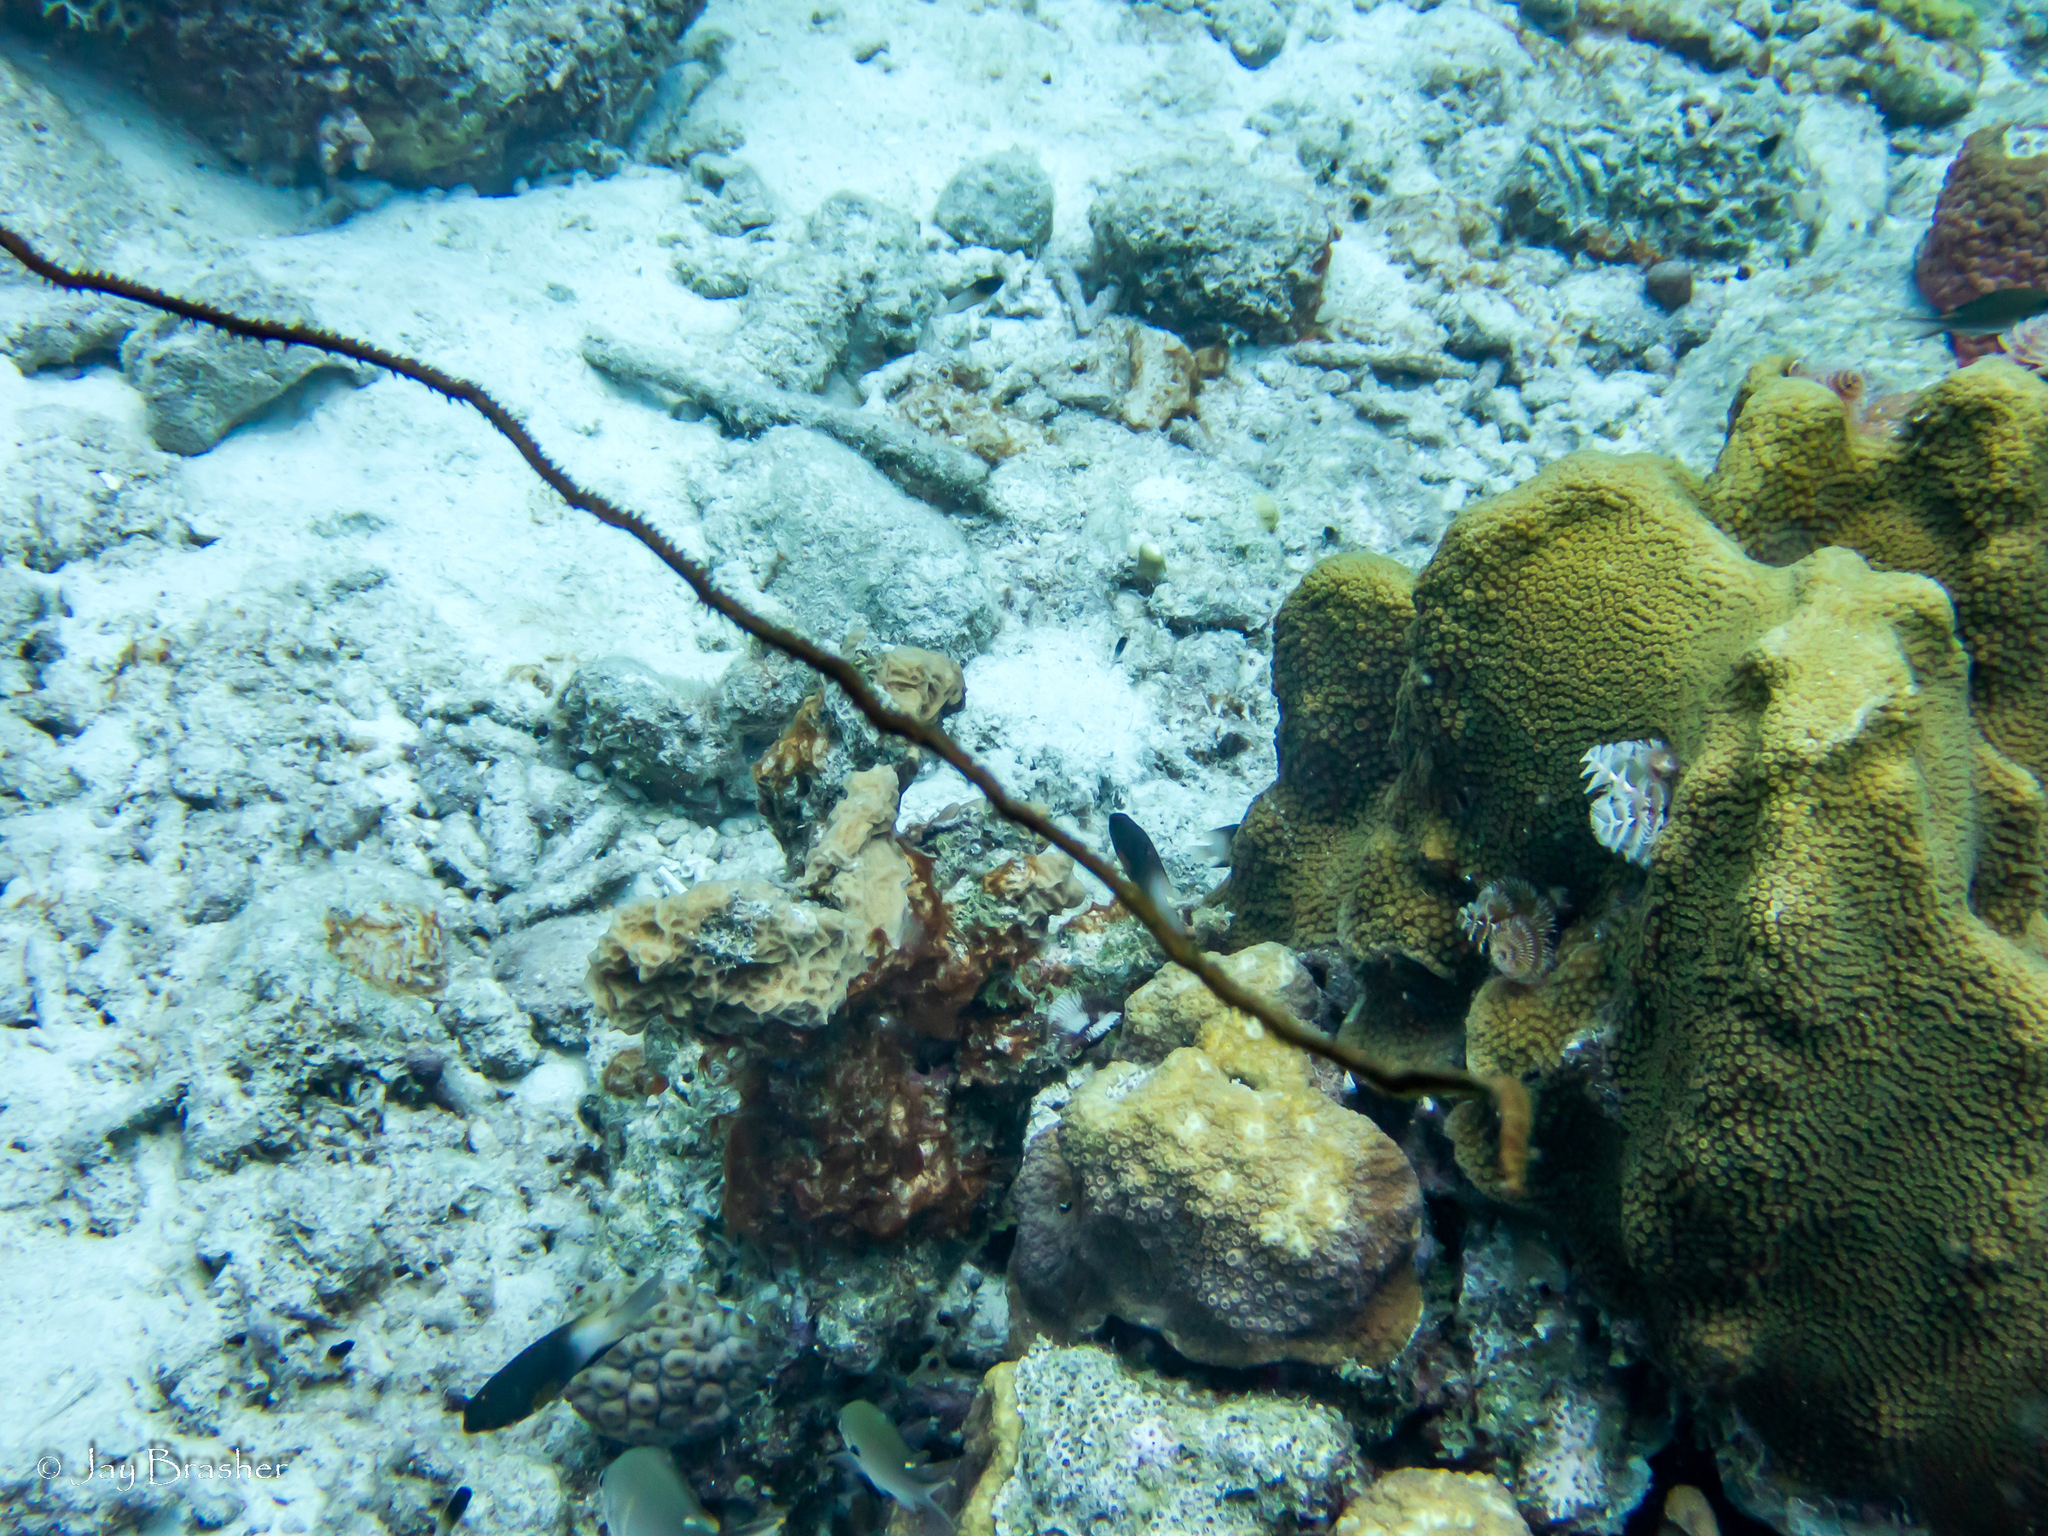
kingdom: Animalia
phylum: Cnidaria
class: Anthozoa
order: Antipatharia
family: Antipathidae
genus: Stichopathes
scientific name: Stichopathes luetkeni
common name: Black wire coral
